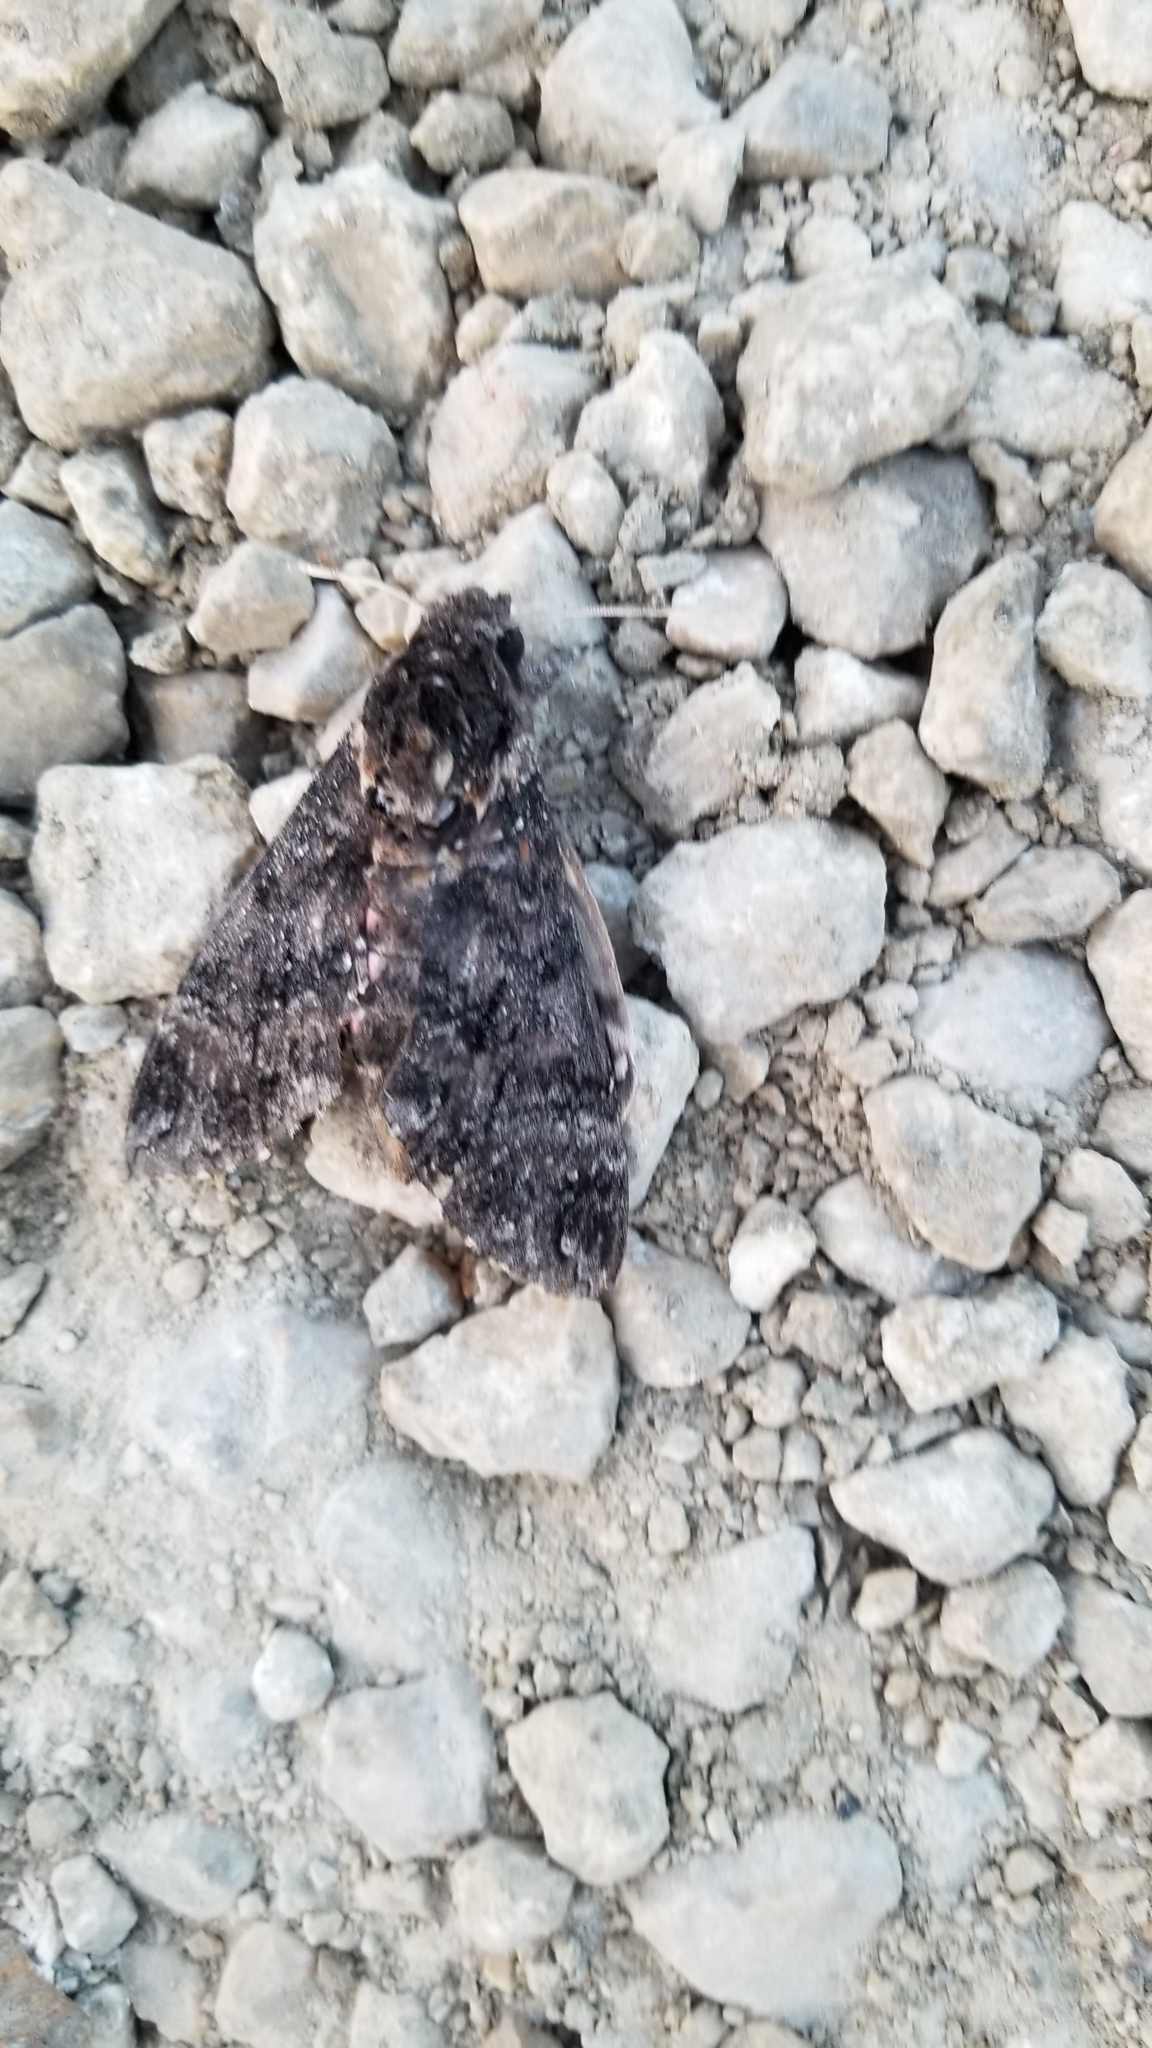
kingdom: Animalia
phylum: Arthropoda
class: Insecta
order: Lepidoptera
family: Sphingidae
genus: Agrius
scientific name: Agrius cingulata
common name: Pink-spotted hawkmoth
